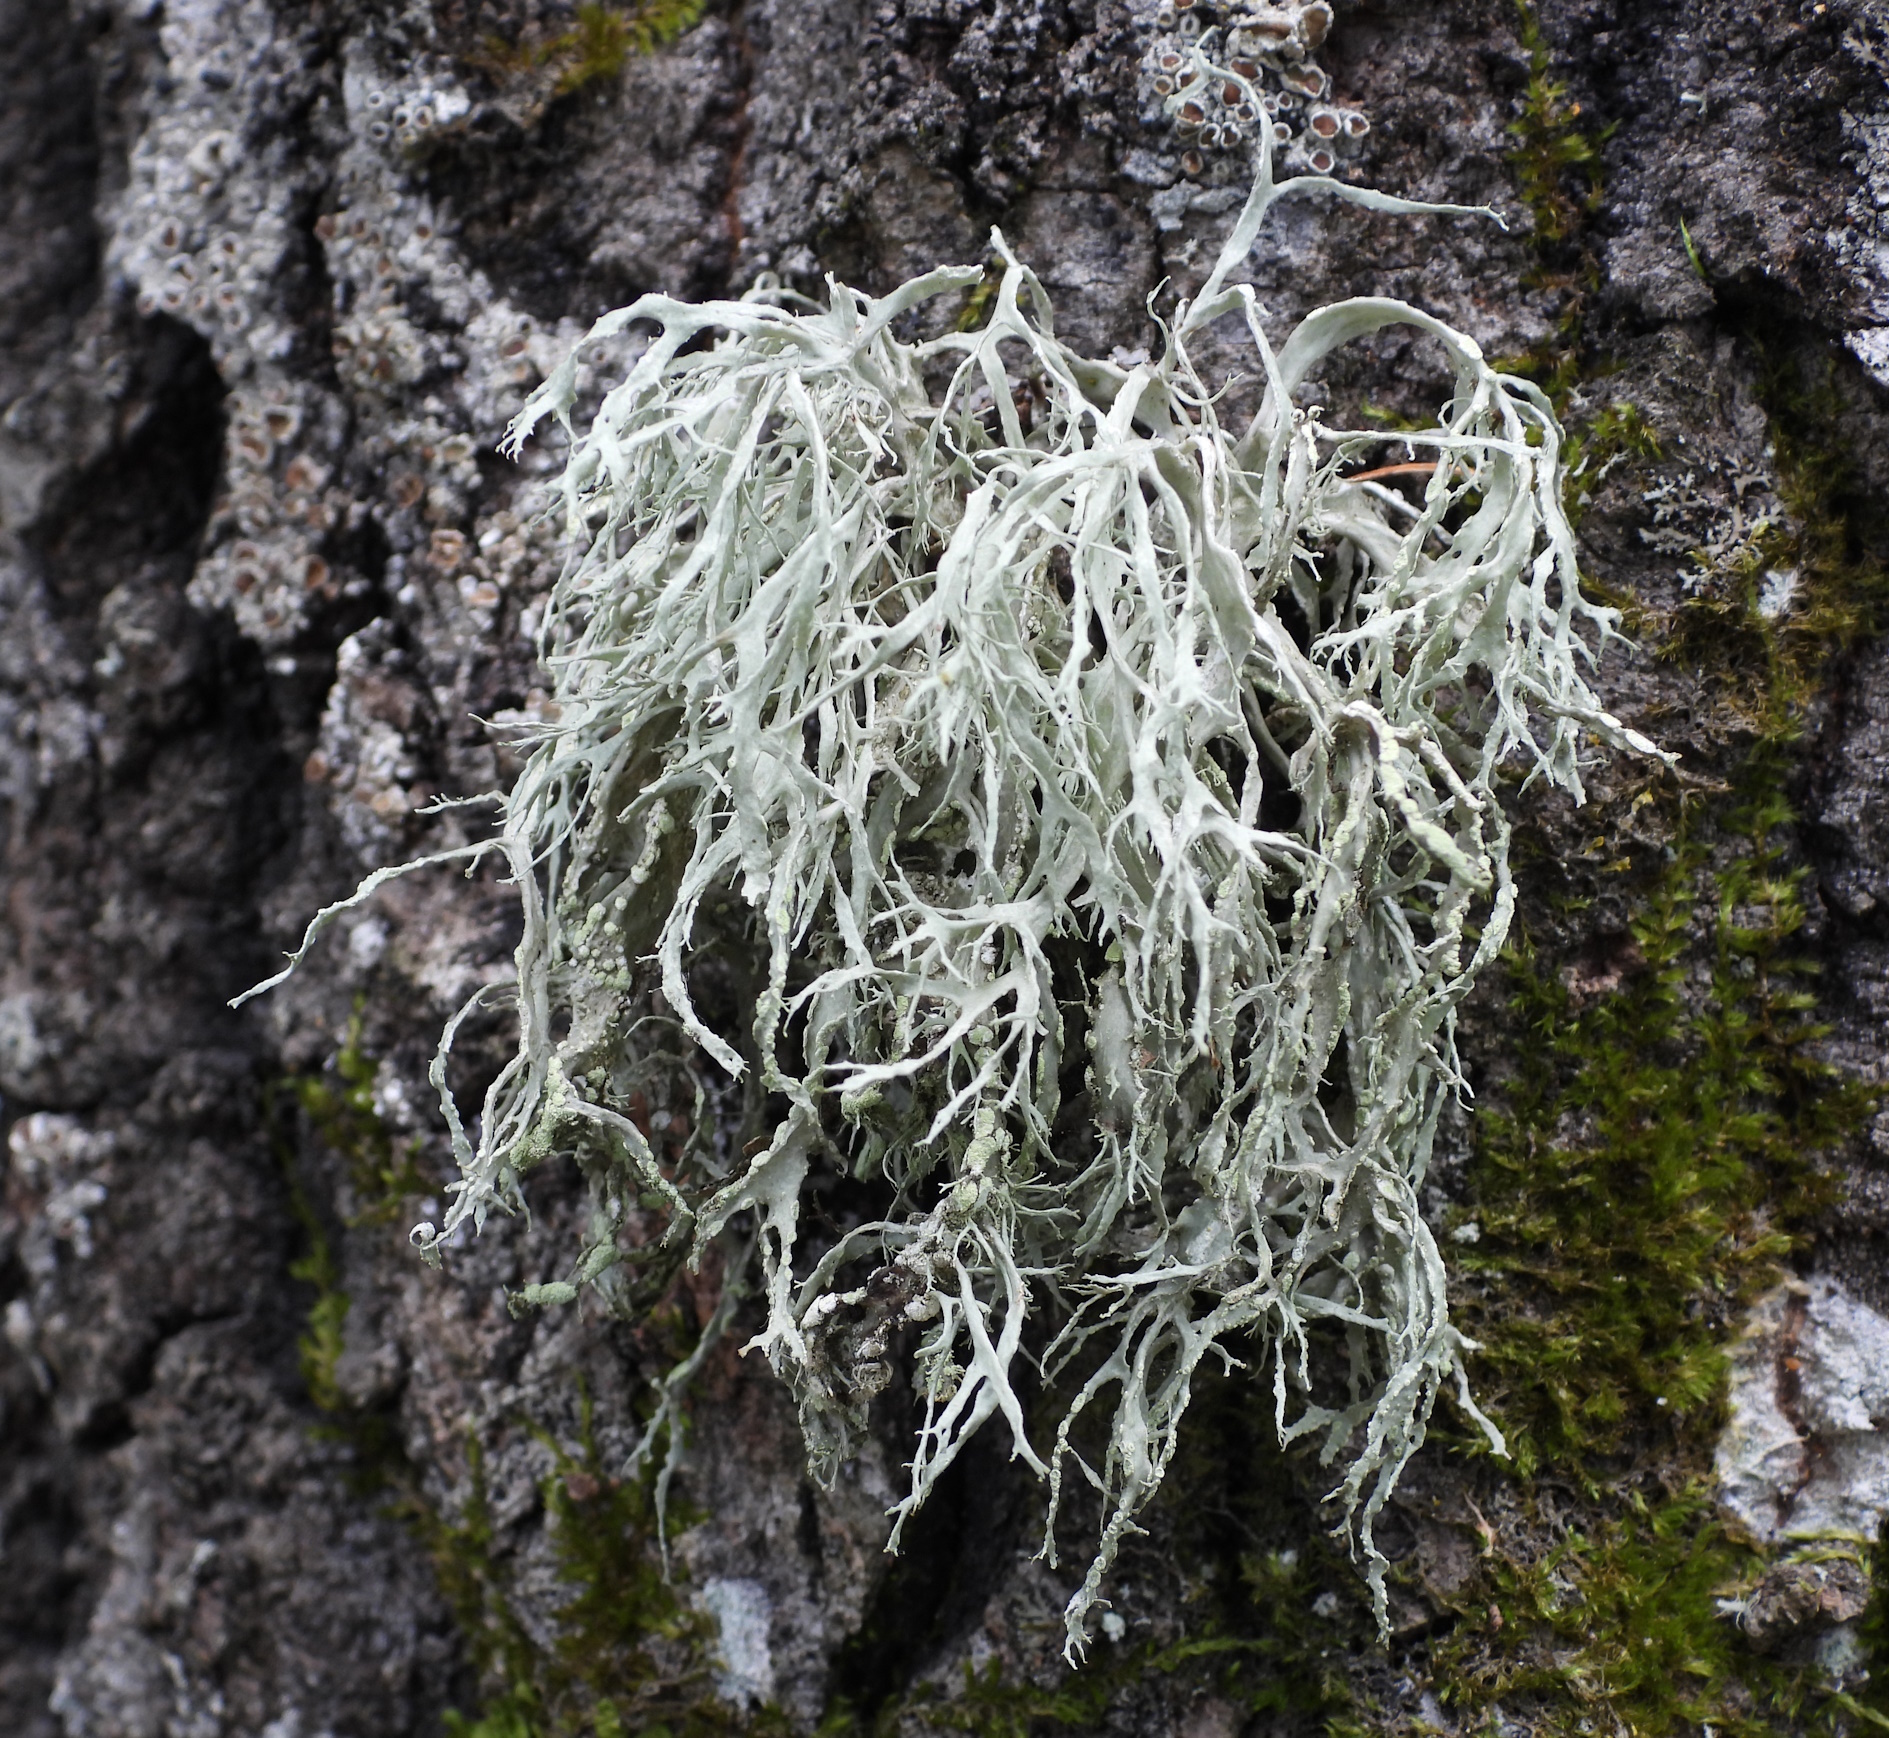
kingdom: Fungi
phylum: Ascomycota
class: Lecanoromycetes
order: Lecanorales
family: Ramalinaceae
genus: Ramalina
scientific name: Ramalina farinacea
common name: Farinose cartilage lichen
